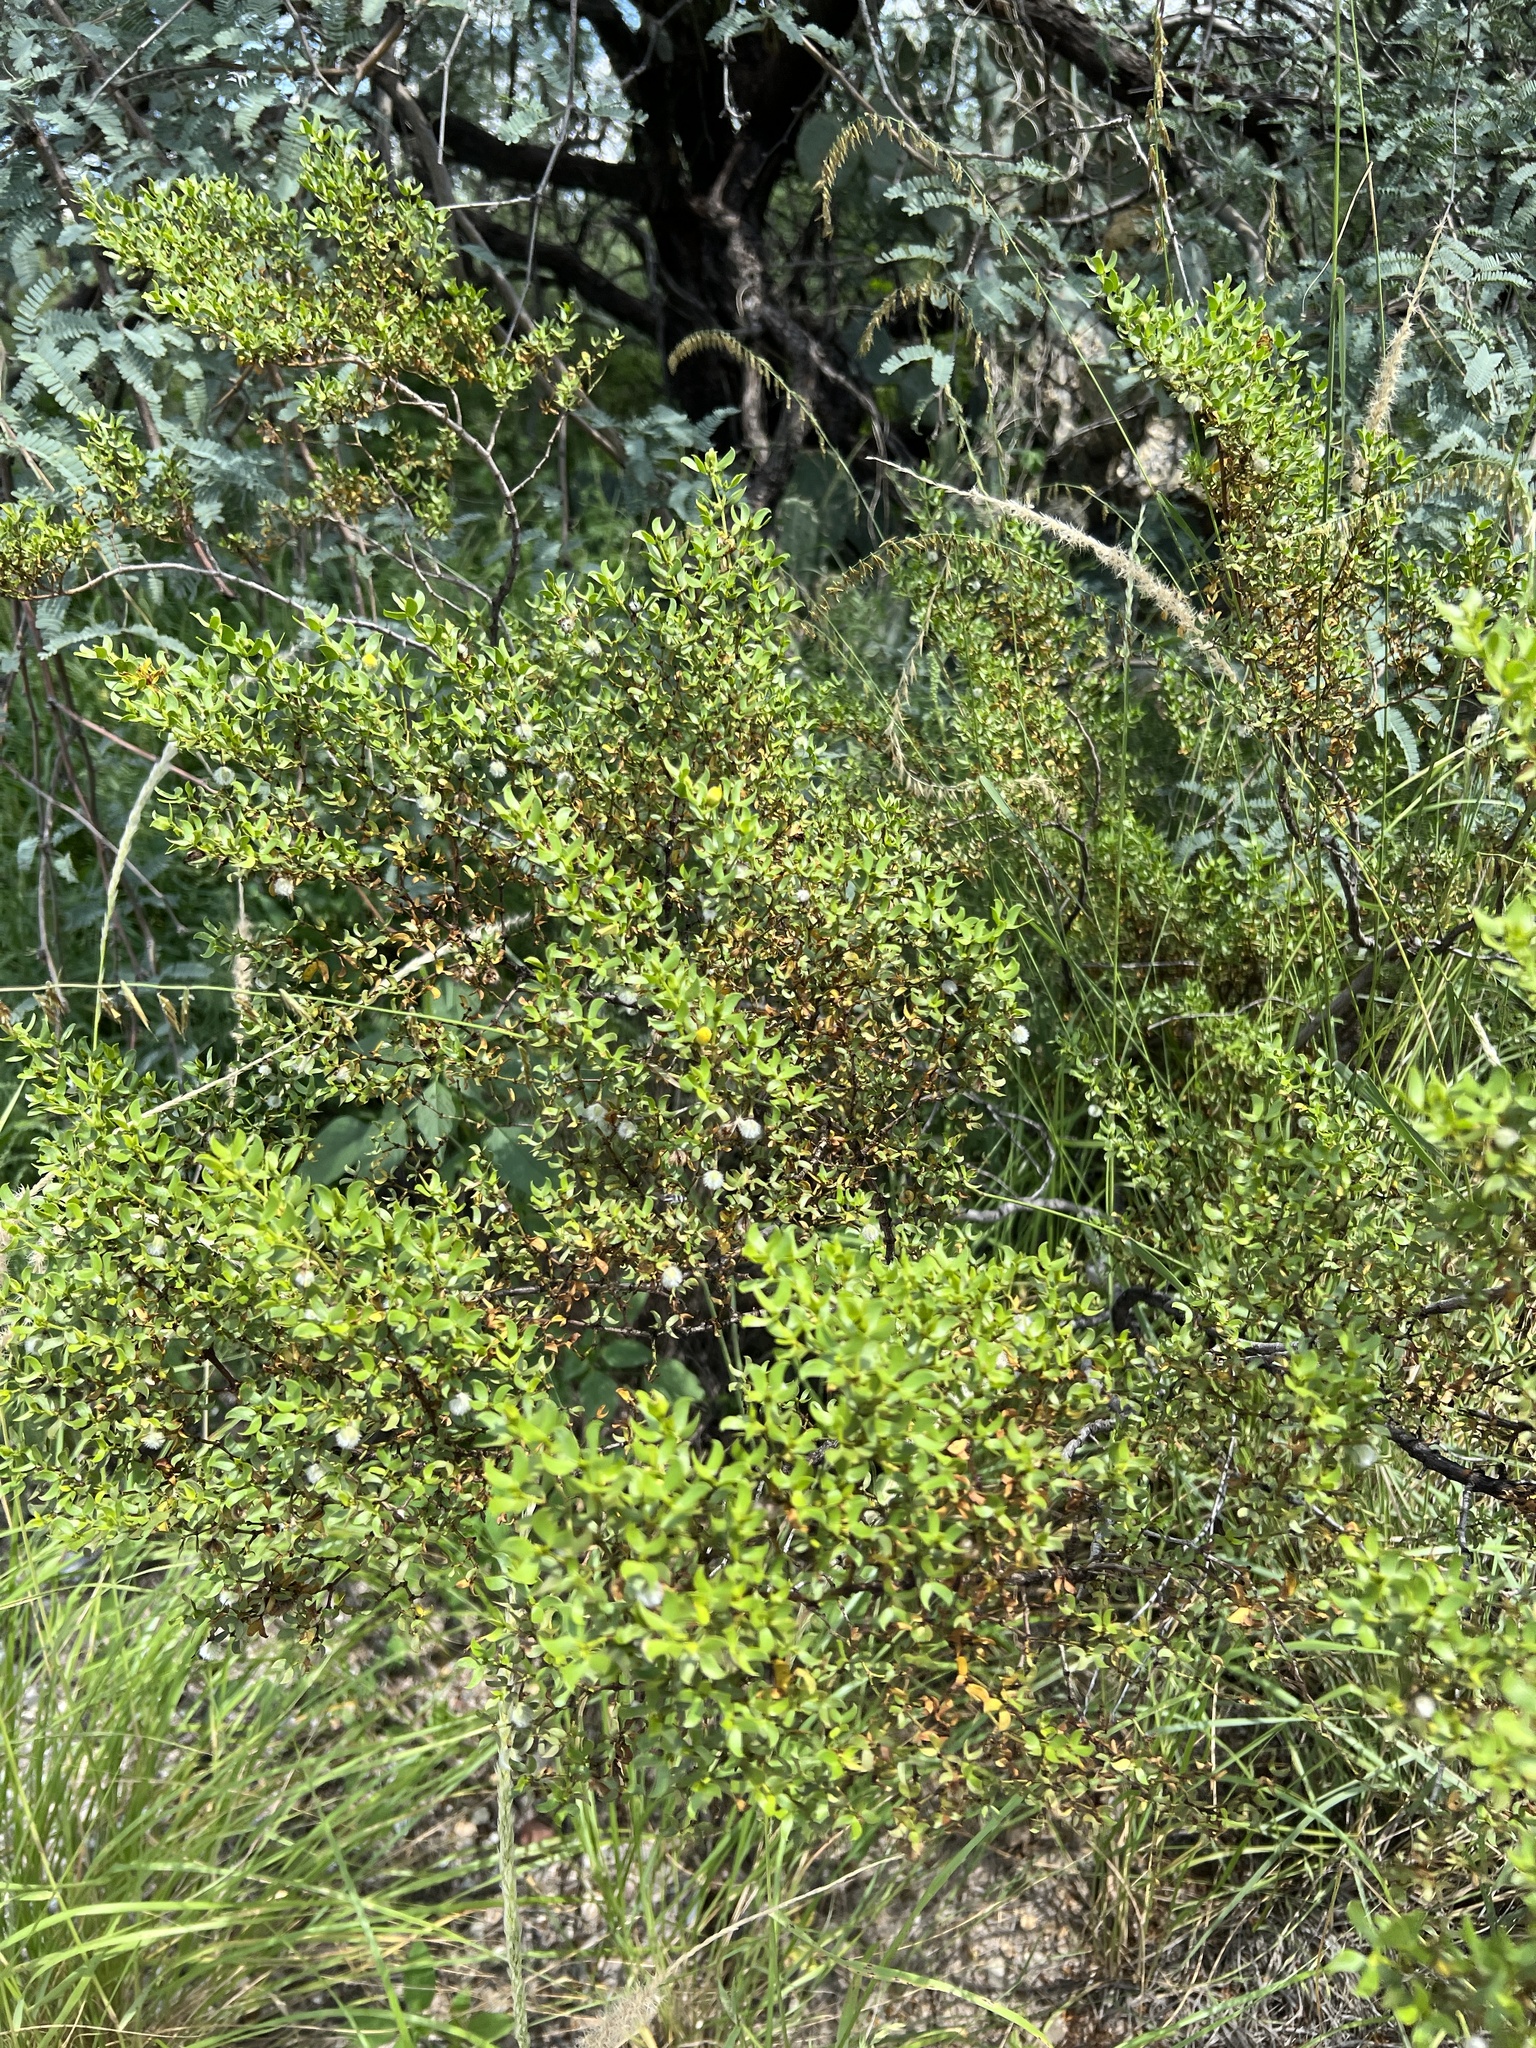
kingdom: Plantae
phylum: Tracheophyta
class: Magnoliopsida
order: Zygophyllales
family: Zygophyllaceae
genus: Larrea
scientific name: Larrea tridentata
